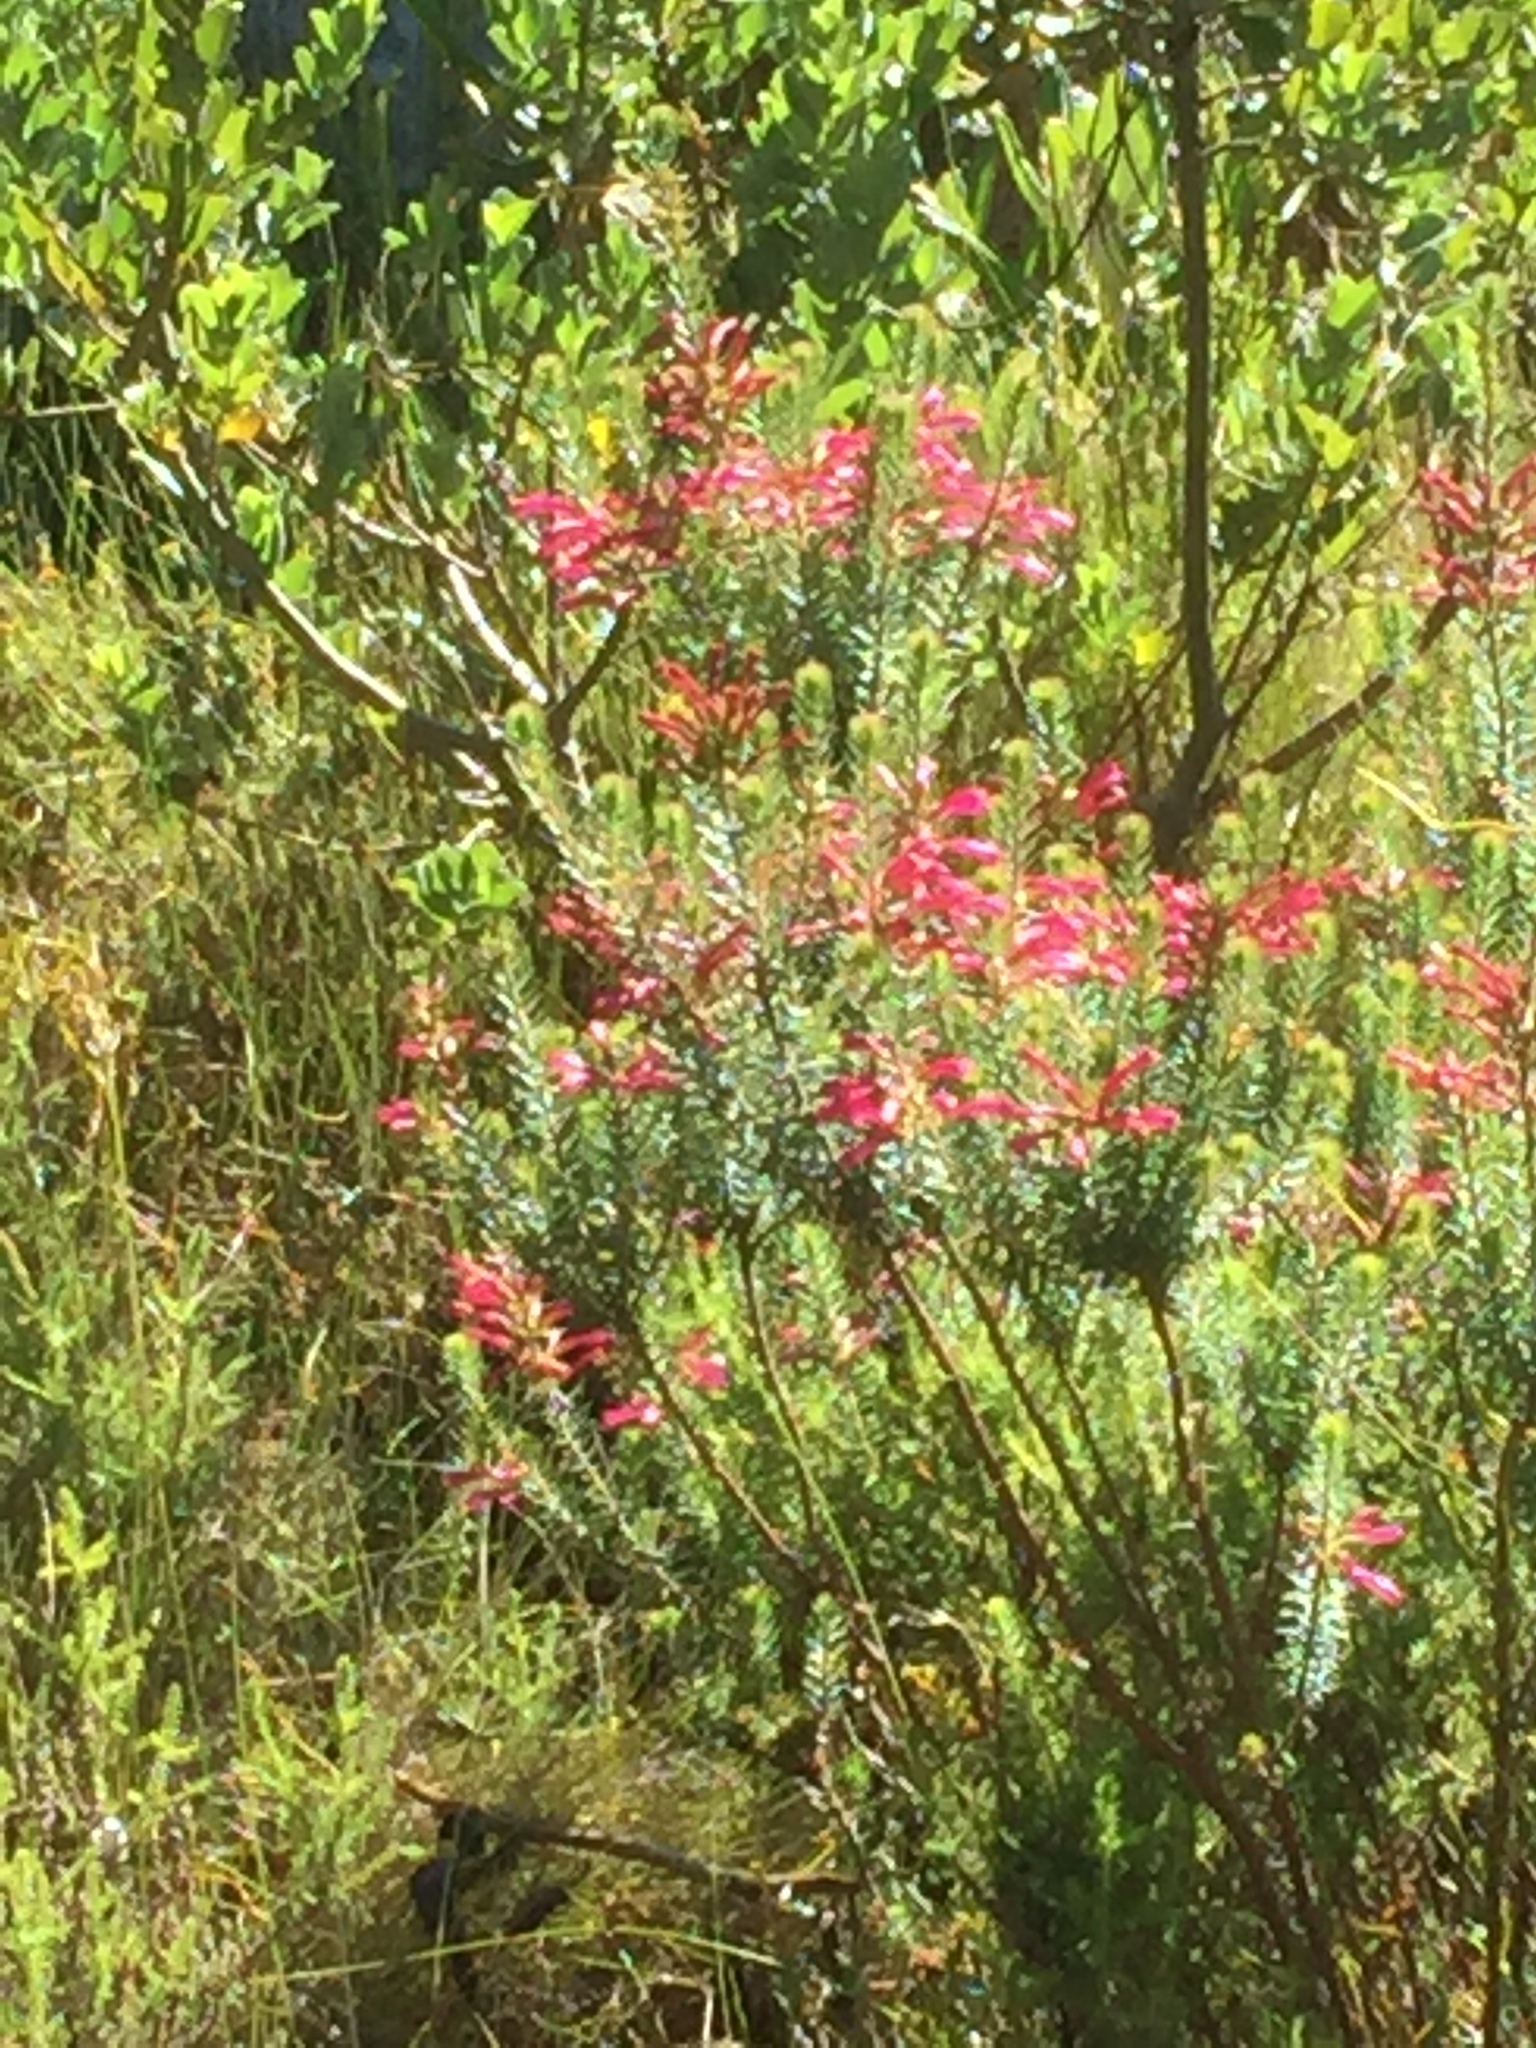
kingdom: Plantae
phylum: Tracheophyta
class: Magnoliopsida
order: Ericales
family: Ericaceae
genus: Erica
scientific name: Erica abietina
